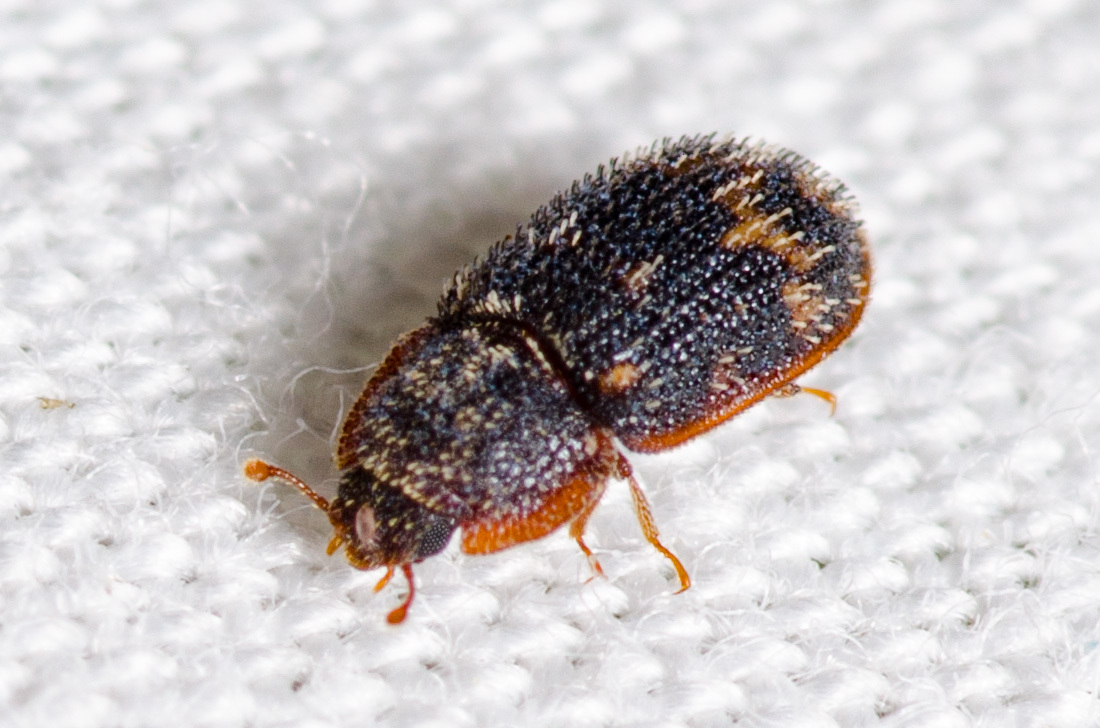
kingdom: Animalia
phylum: Arthropoda
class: Insecta
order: Coleoptera
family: Zopheridae
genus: Eucicones
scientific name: Eucicones marginalis
